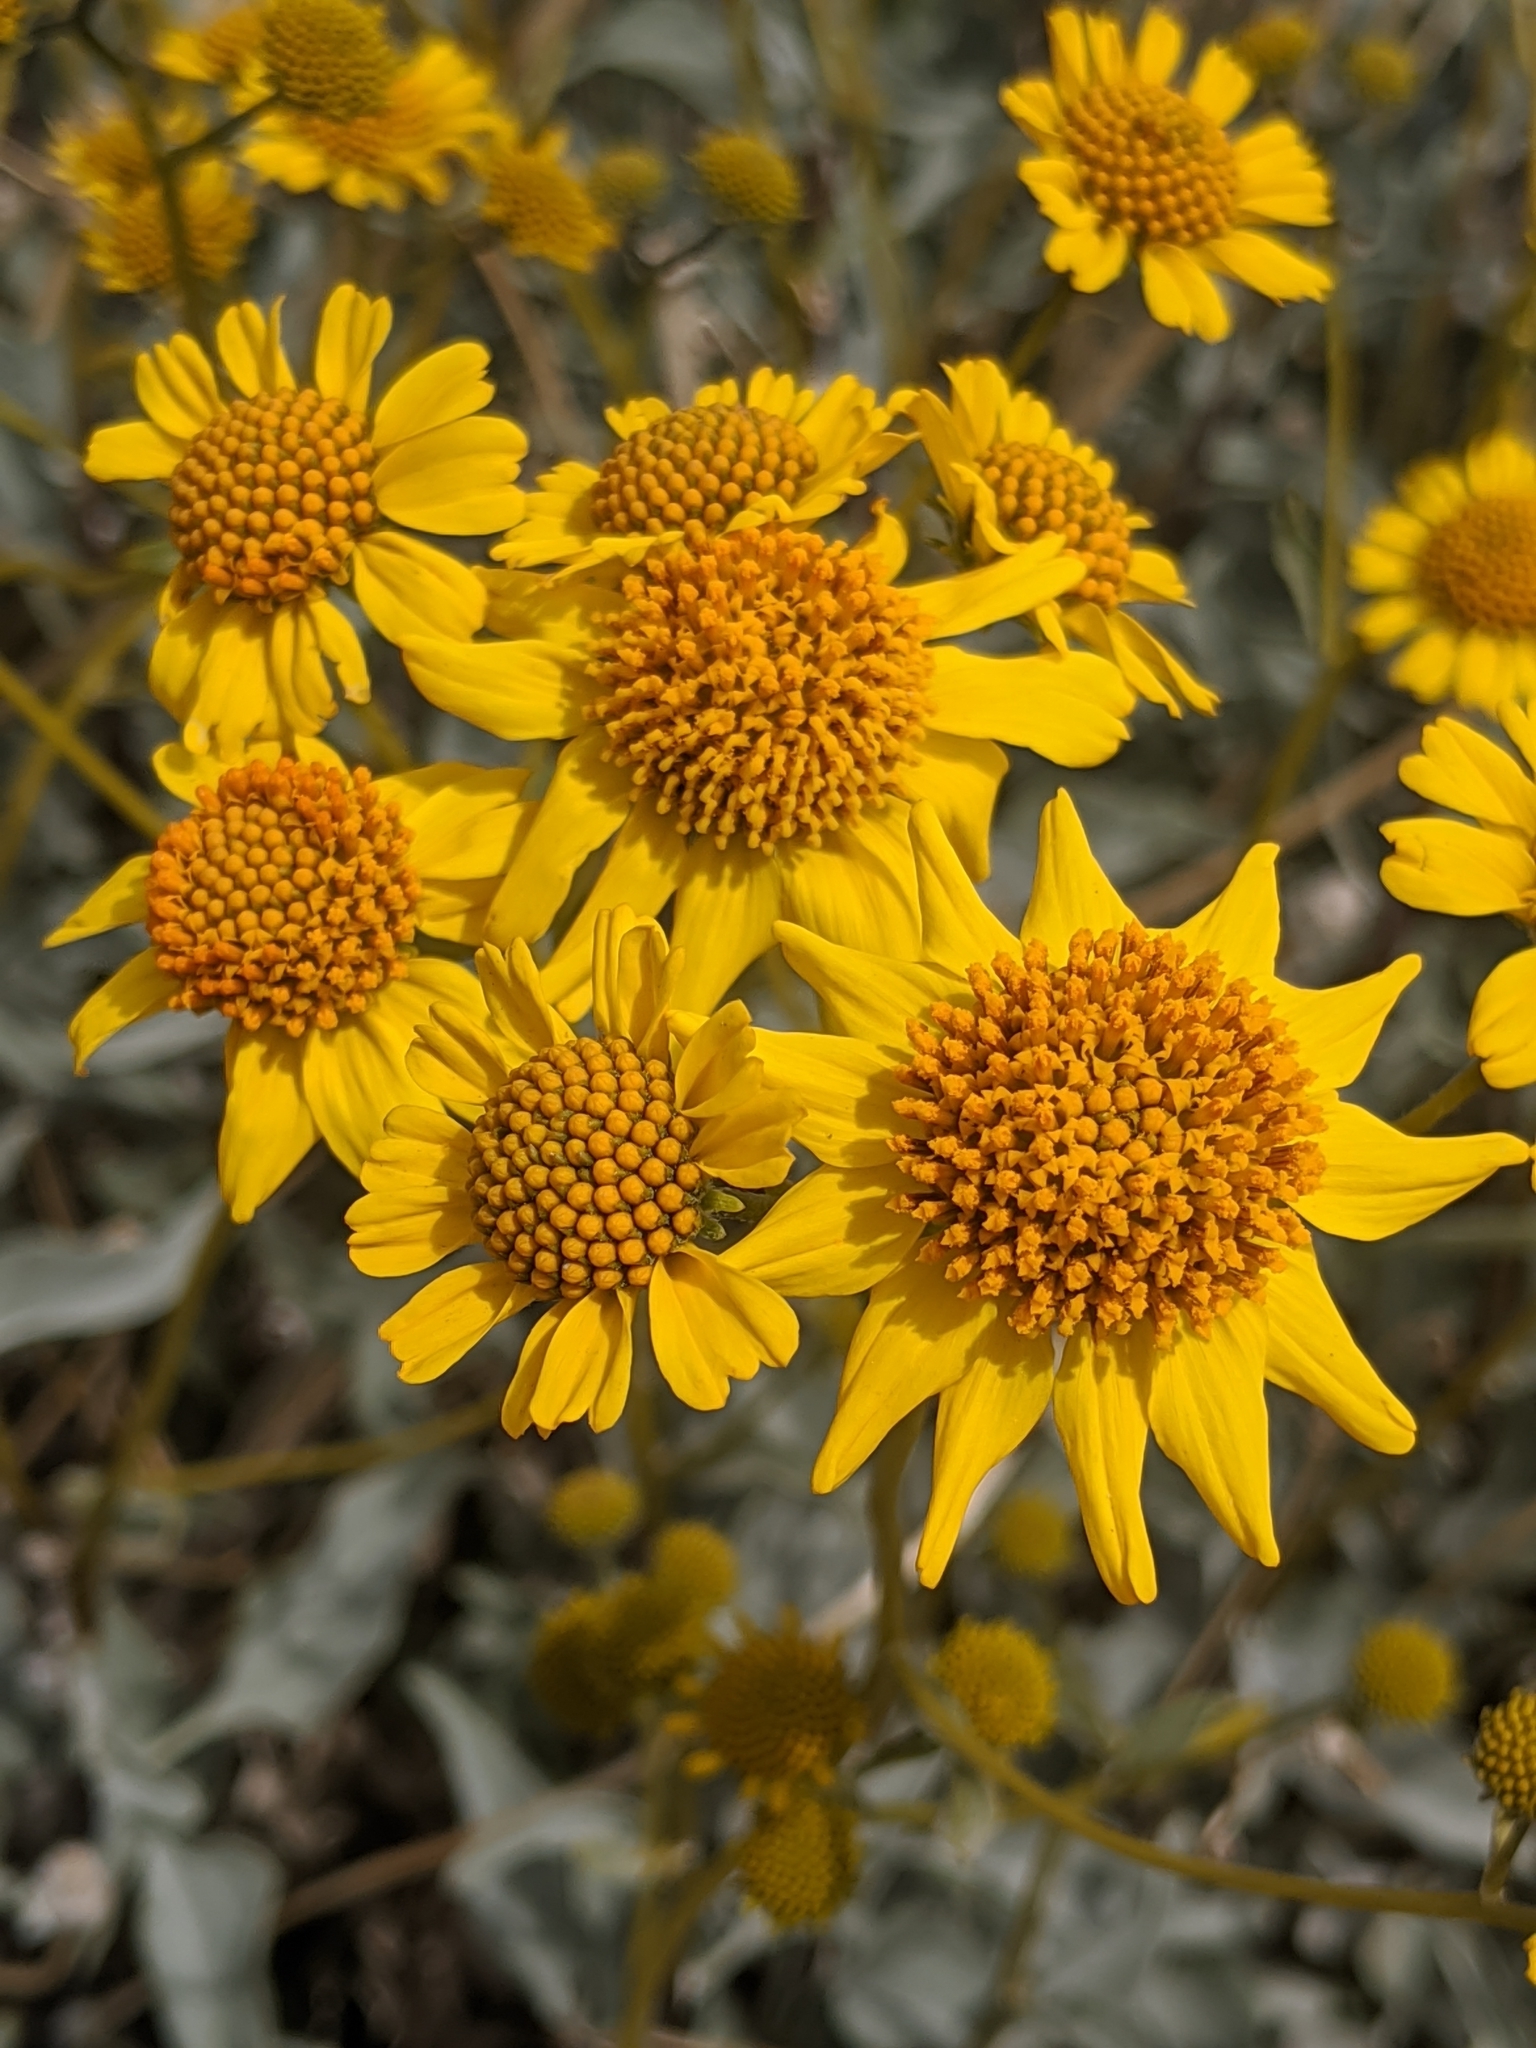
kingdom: Plantae
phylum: Tracheophyta
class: Magnoliopsida
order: Asterales
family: Asteraceae
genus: Encelia
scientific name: Encelia farinosa
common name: Brittlebush
